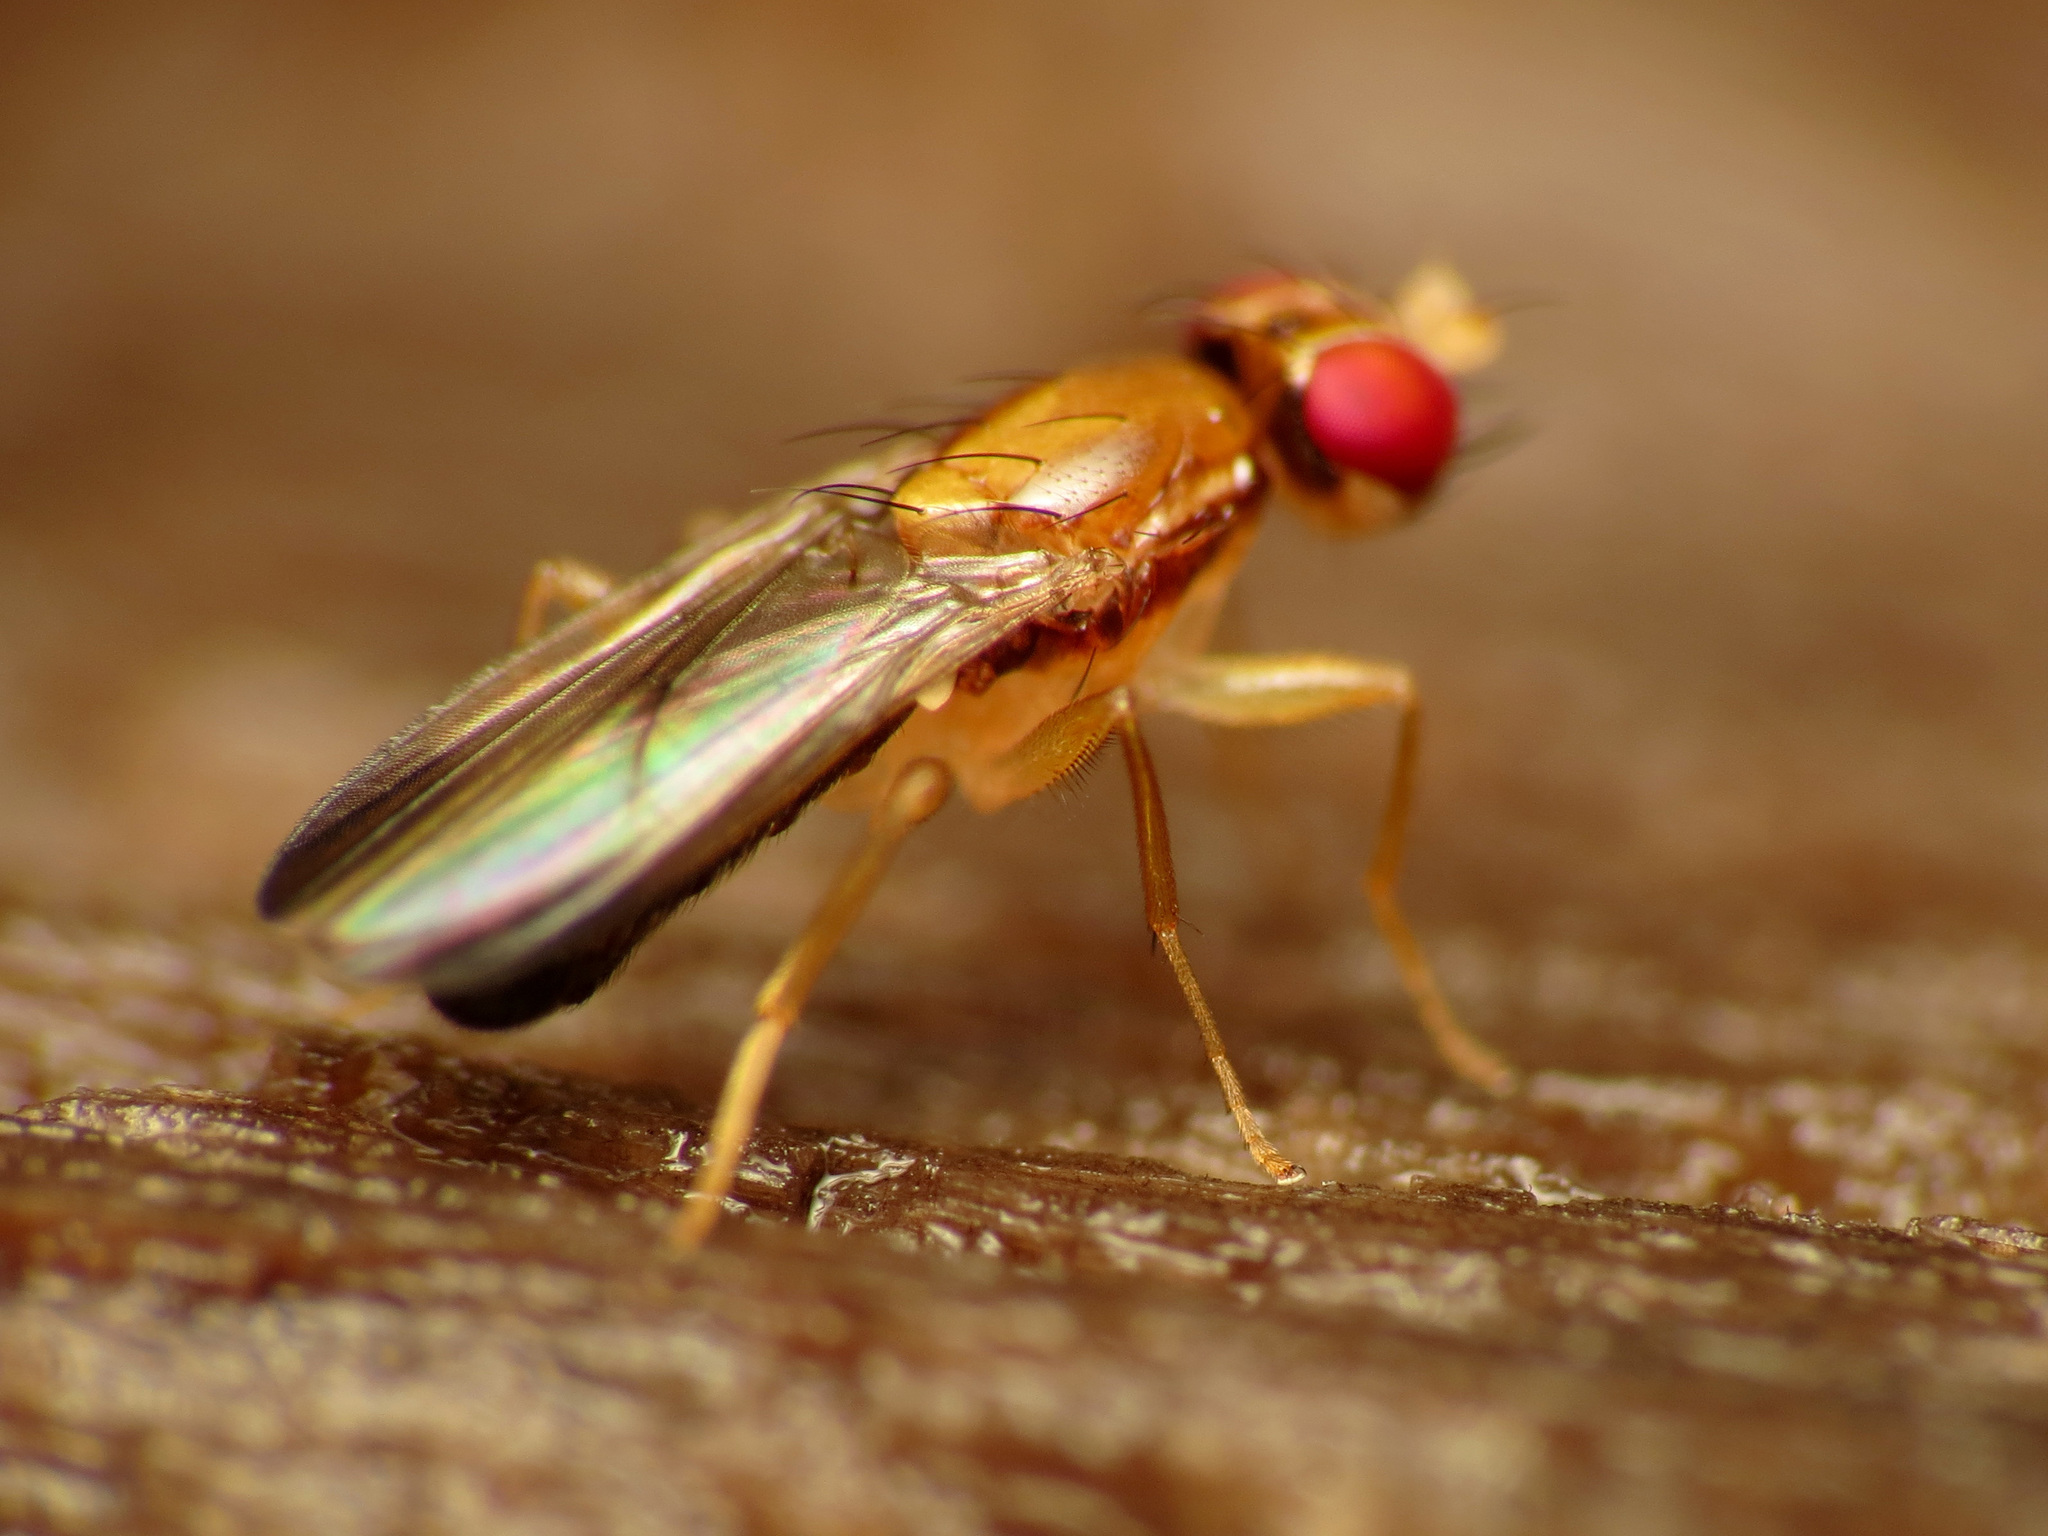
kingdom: Animalia
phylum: Arthropoda
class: Insecta
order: Diptera
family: Clusiidae
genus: Clusiodes
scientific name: Clusiodes
